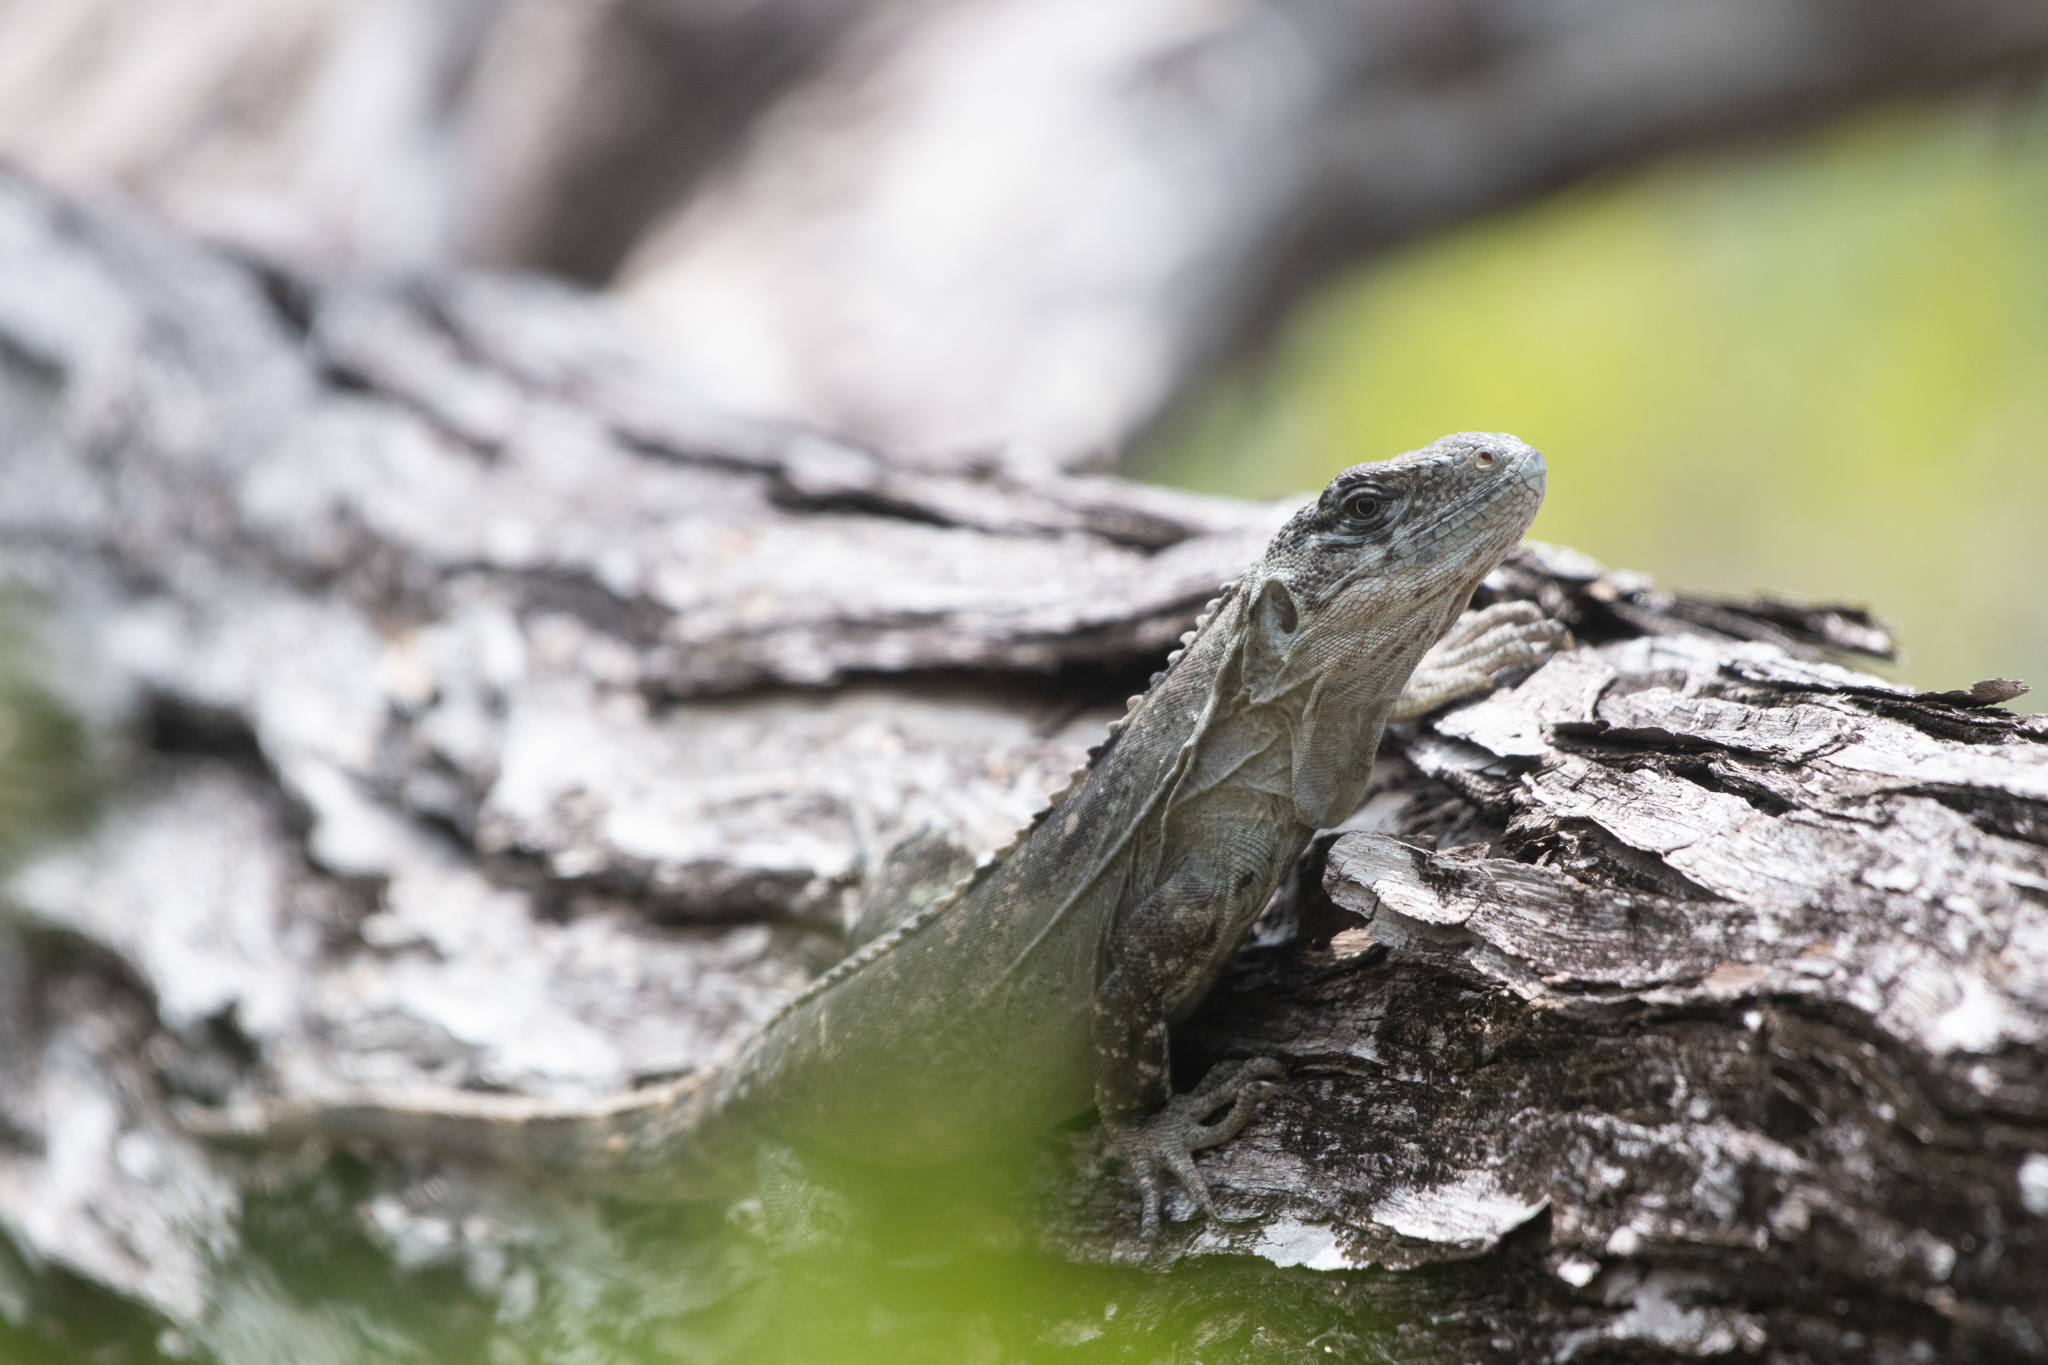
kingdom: Animalia
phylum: Chordata
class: Squamata
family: Iguanidae
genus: Ctenosaura
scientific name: Ctenosaura bakeri
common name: Utila spiny-tailed iguana
